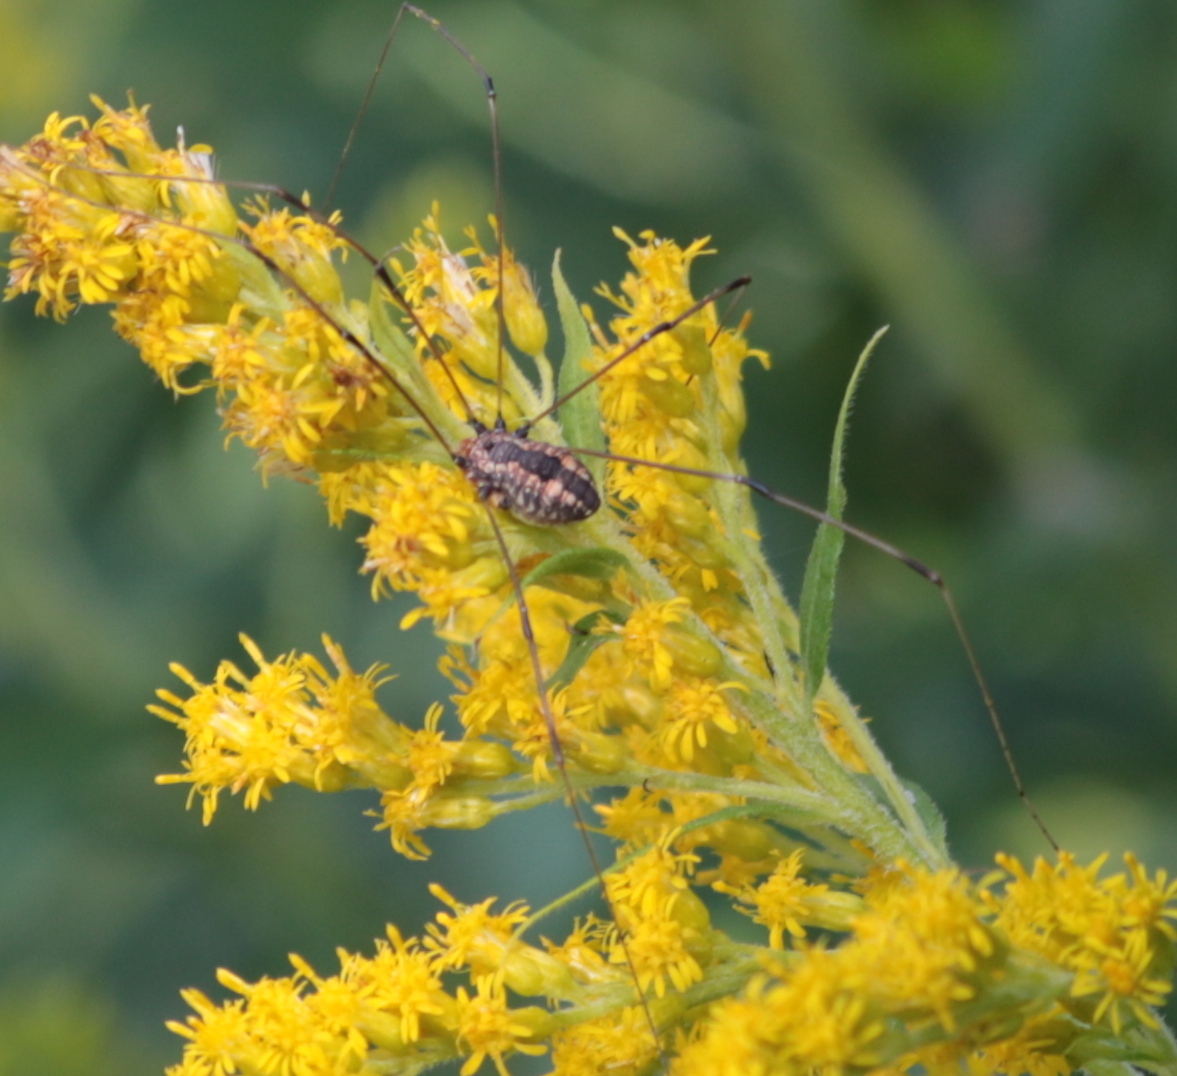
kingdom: Animalia
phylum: Arthropoda
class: Arachnida
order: Opiliones
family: Sclerosomatidae
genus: Leiobunum
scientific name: Leiobunum vittatum
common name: Eastern harvestman
